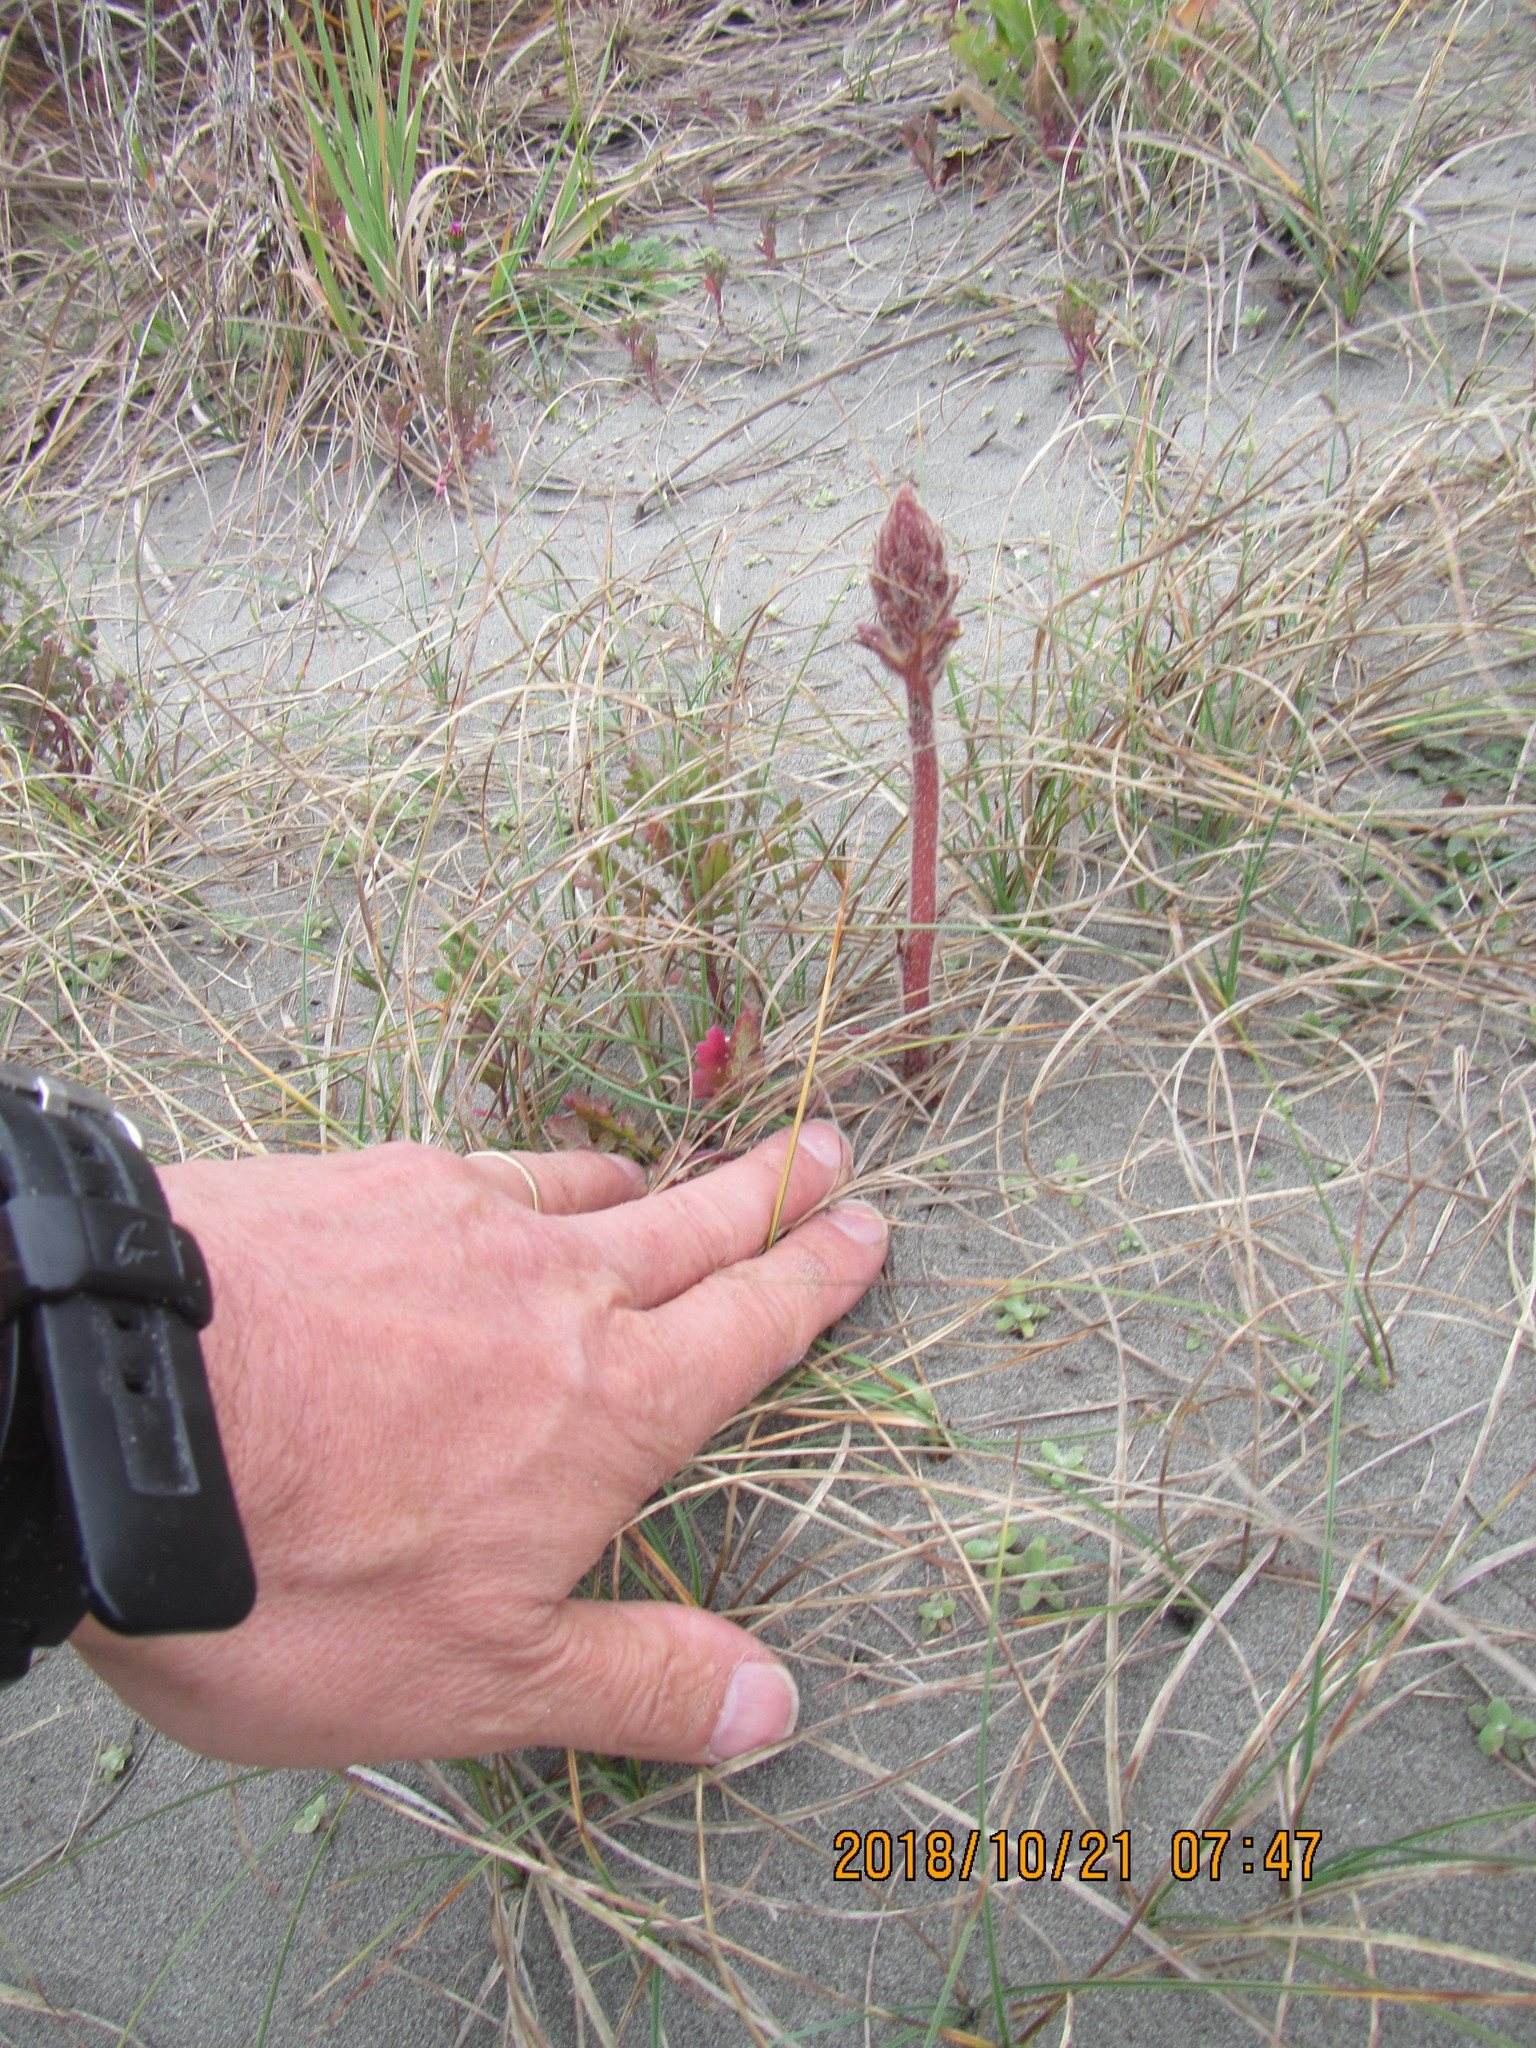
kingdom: Plantae
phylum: Tracheophyta
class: Magnoliopsida
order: Lamiales
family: Orobanchaceae
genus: Orobanche
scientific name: Orobanche minor
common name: Common broomrape
